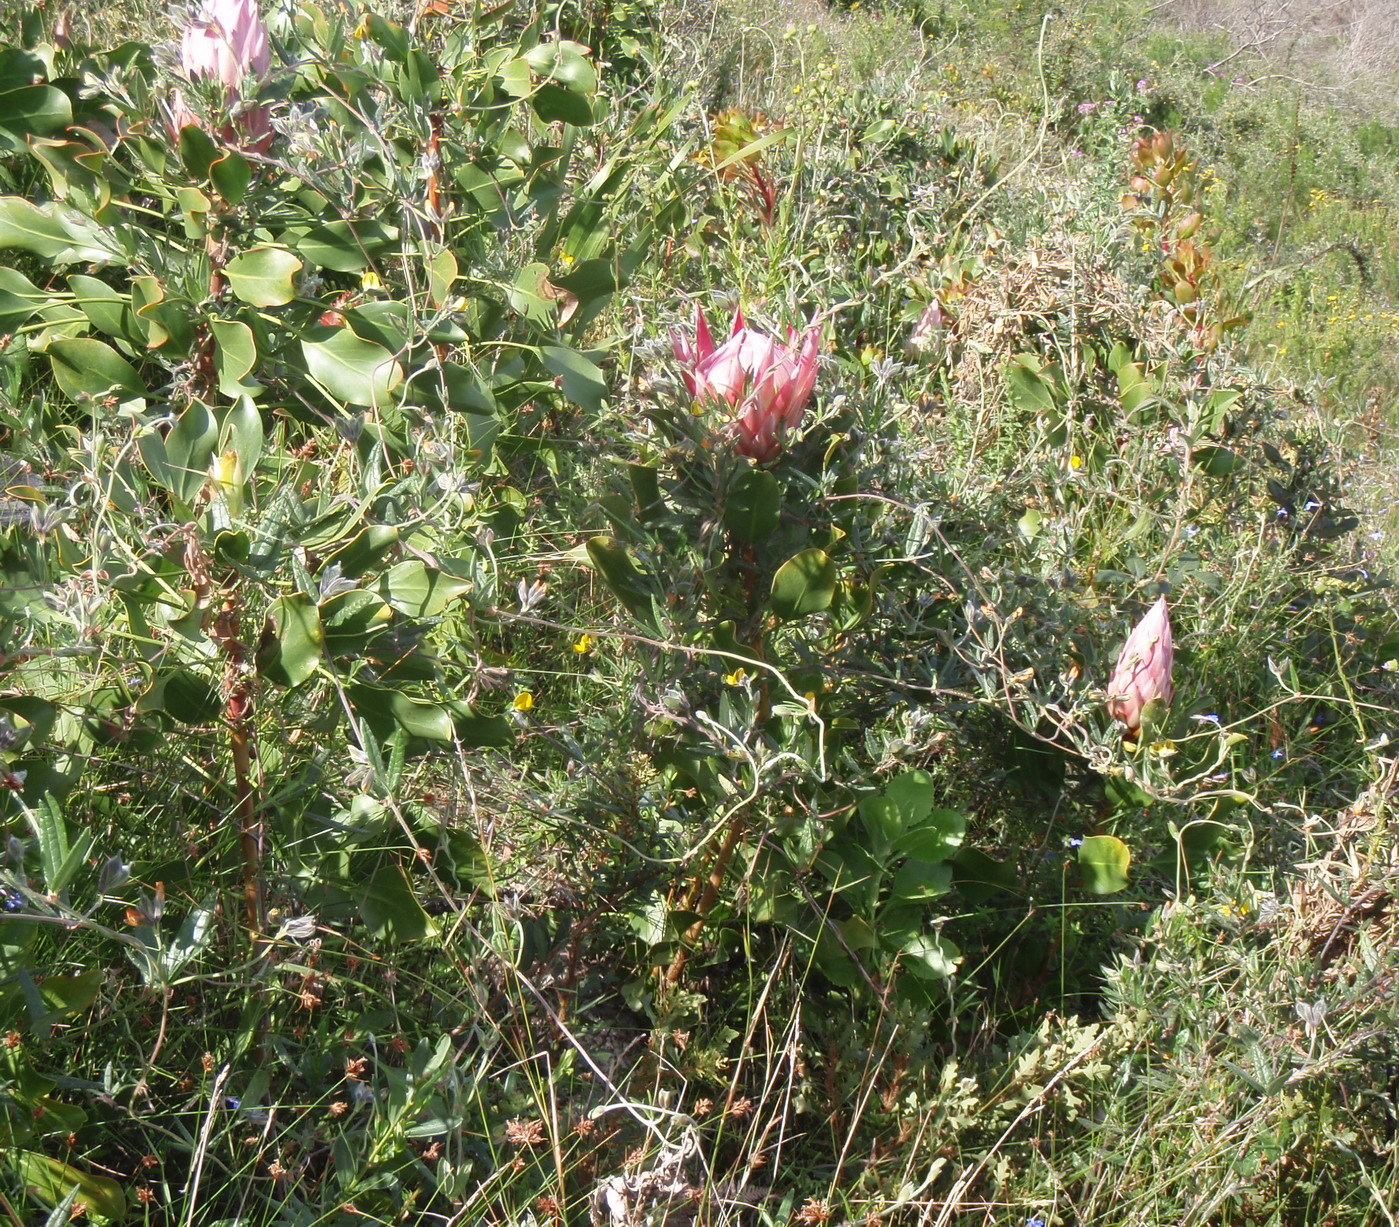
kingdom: Plantae
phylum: Tracheophyta
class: Magnoliopsida
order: Proteales
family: Proteaceae
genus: Protea
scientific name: Protea cynaroides
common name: King protea
